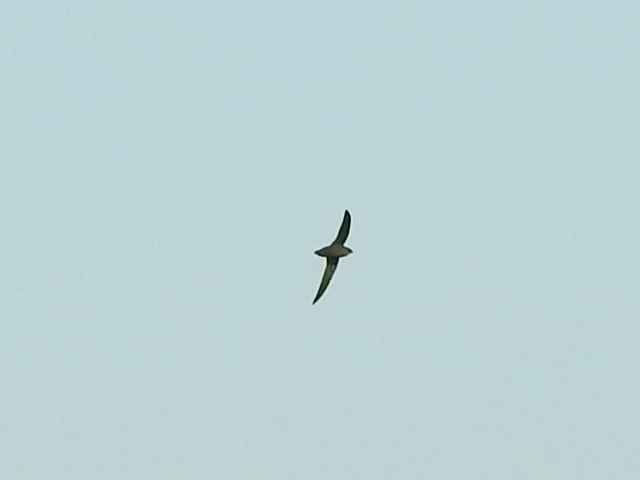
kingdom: Animalia
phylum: Chordata
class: Aves
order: Apodiformes
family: Apodidae
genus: Chaetura
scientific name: Chaetura pelagica
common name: Chimney swift
